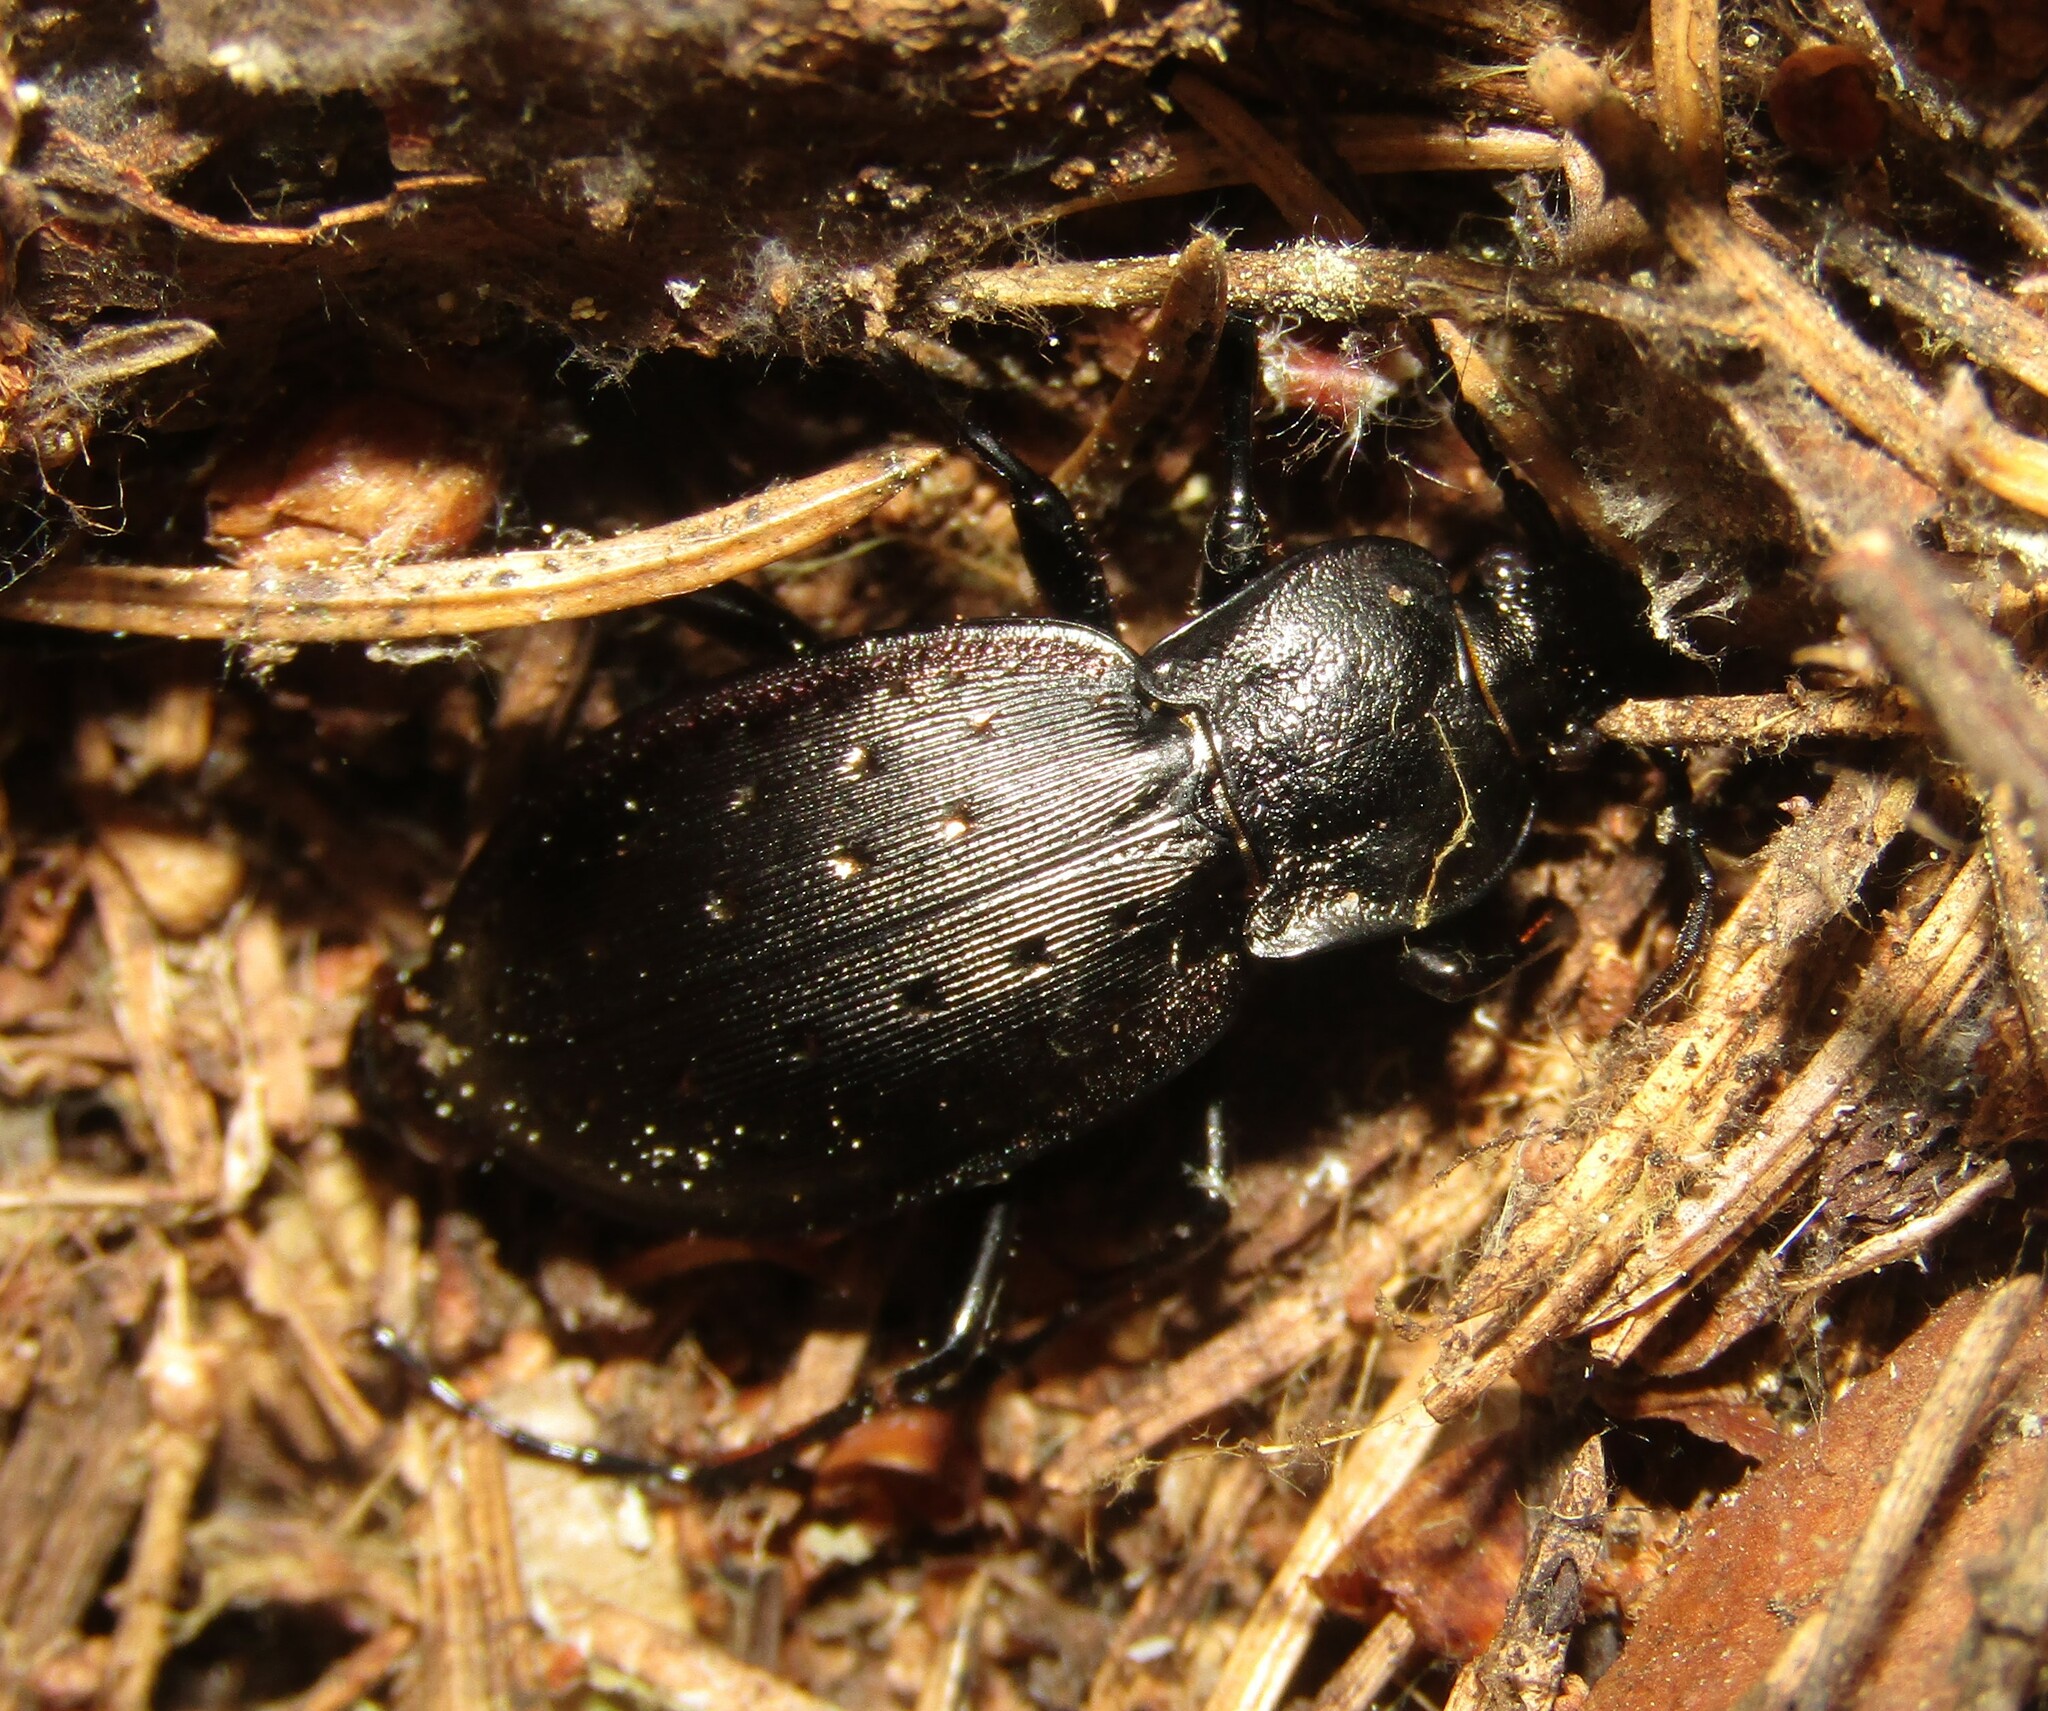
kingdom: Animalia
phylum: Arthropoda
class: Insecta
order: Coleoptera
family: Carabidae
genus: Carabus
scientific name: Carabus hortensis
